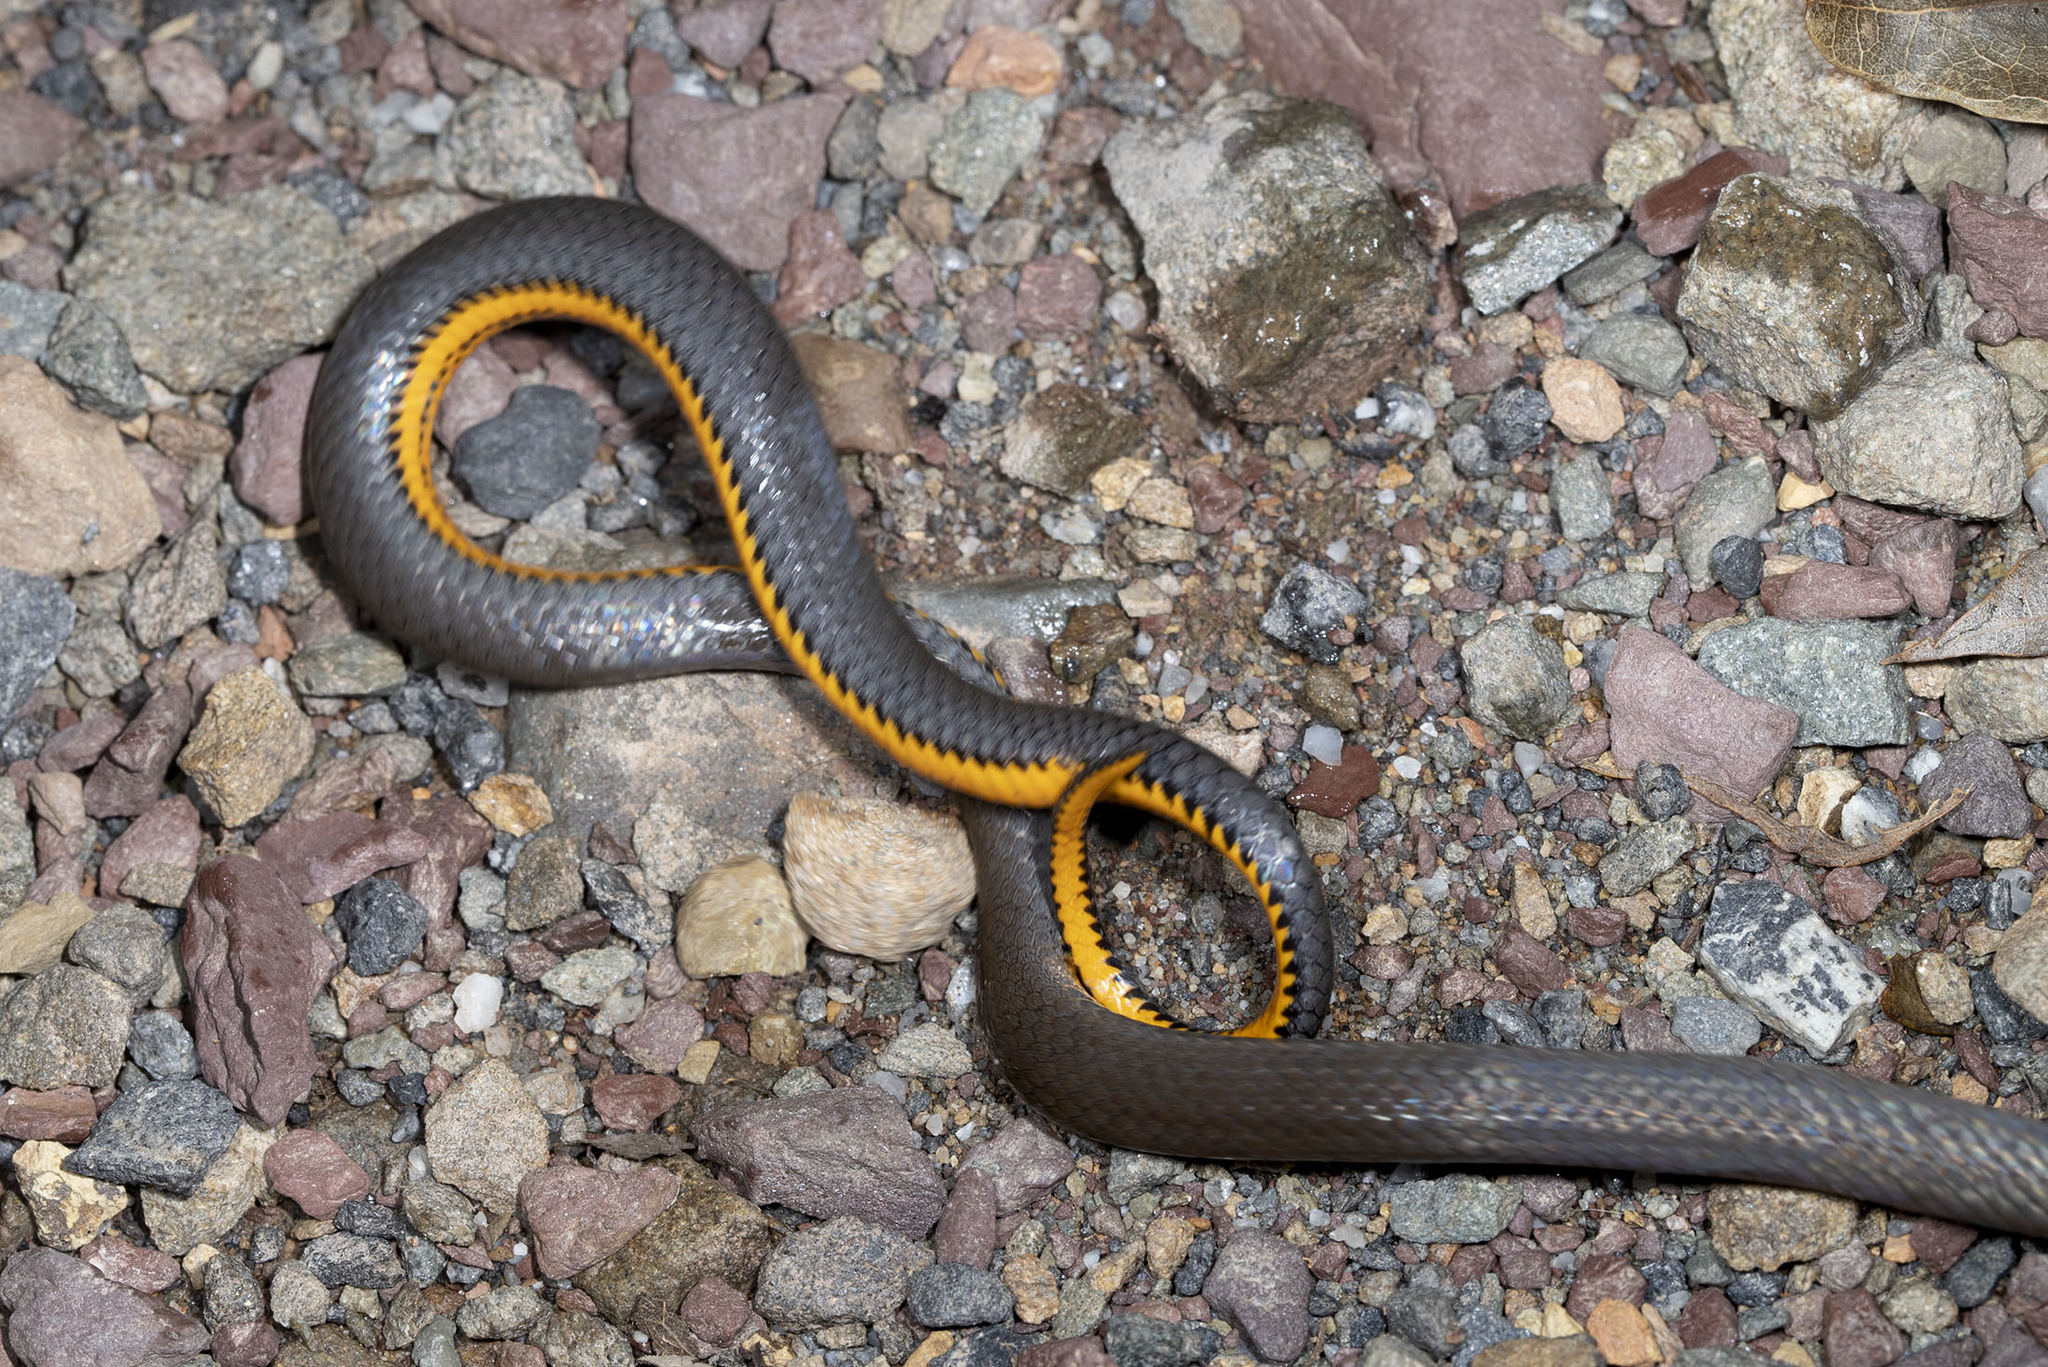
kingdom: Animalia
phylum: Chordata
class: Squamata
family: Colubridae
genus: Diadophis
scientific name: Diadophis punctatus
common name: Ringneck snake
